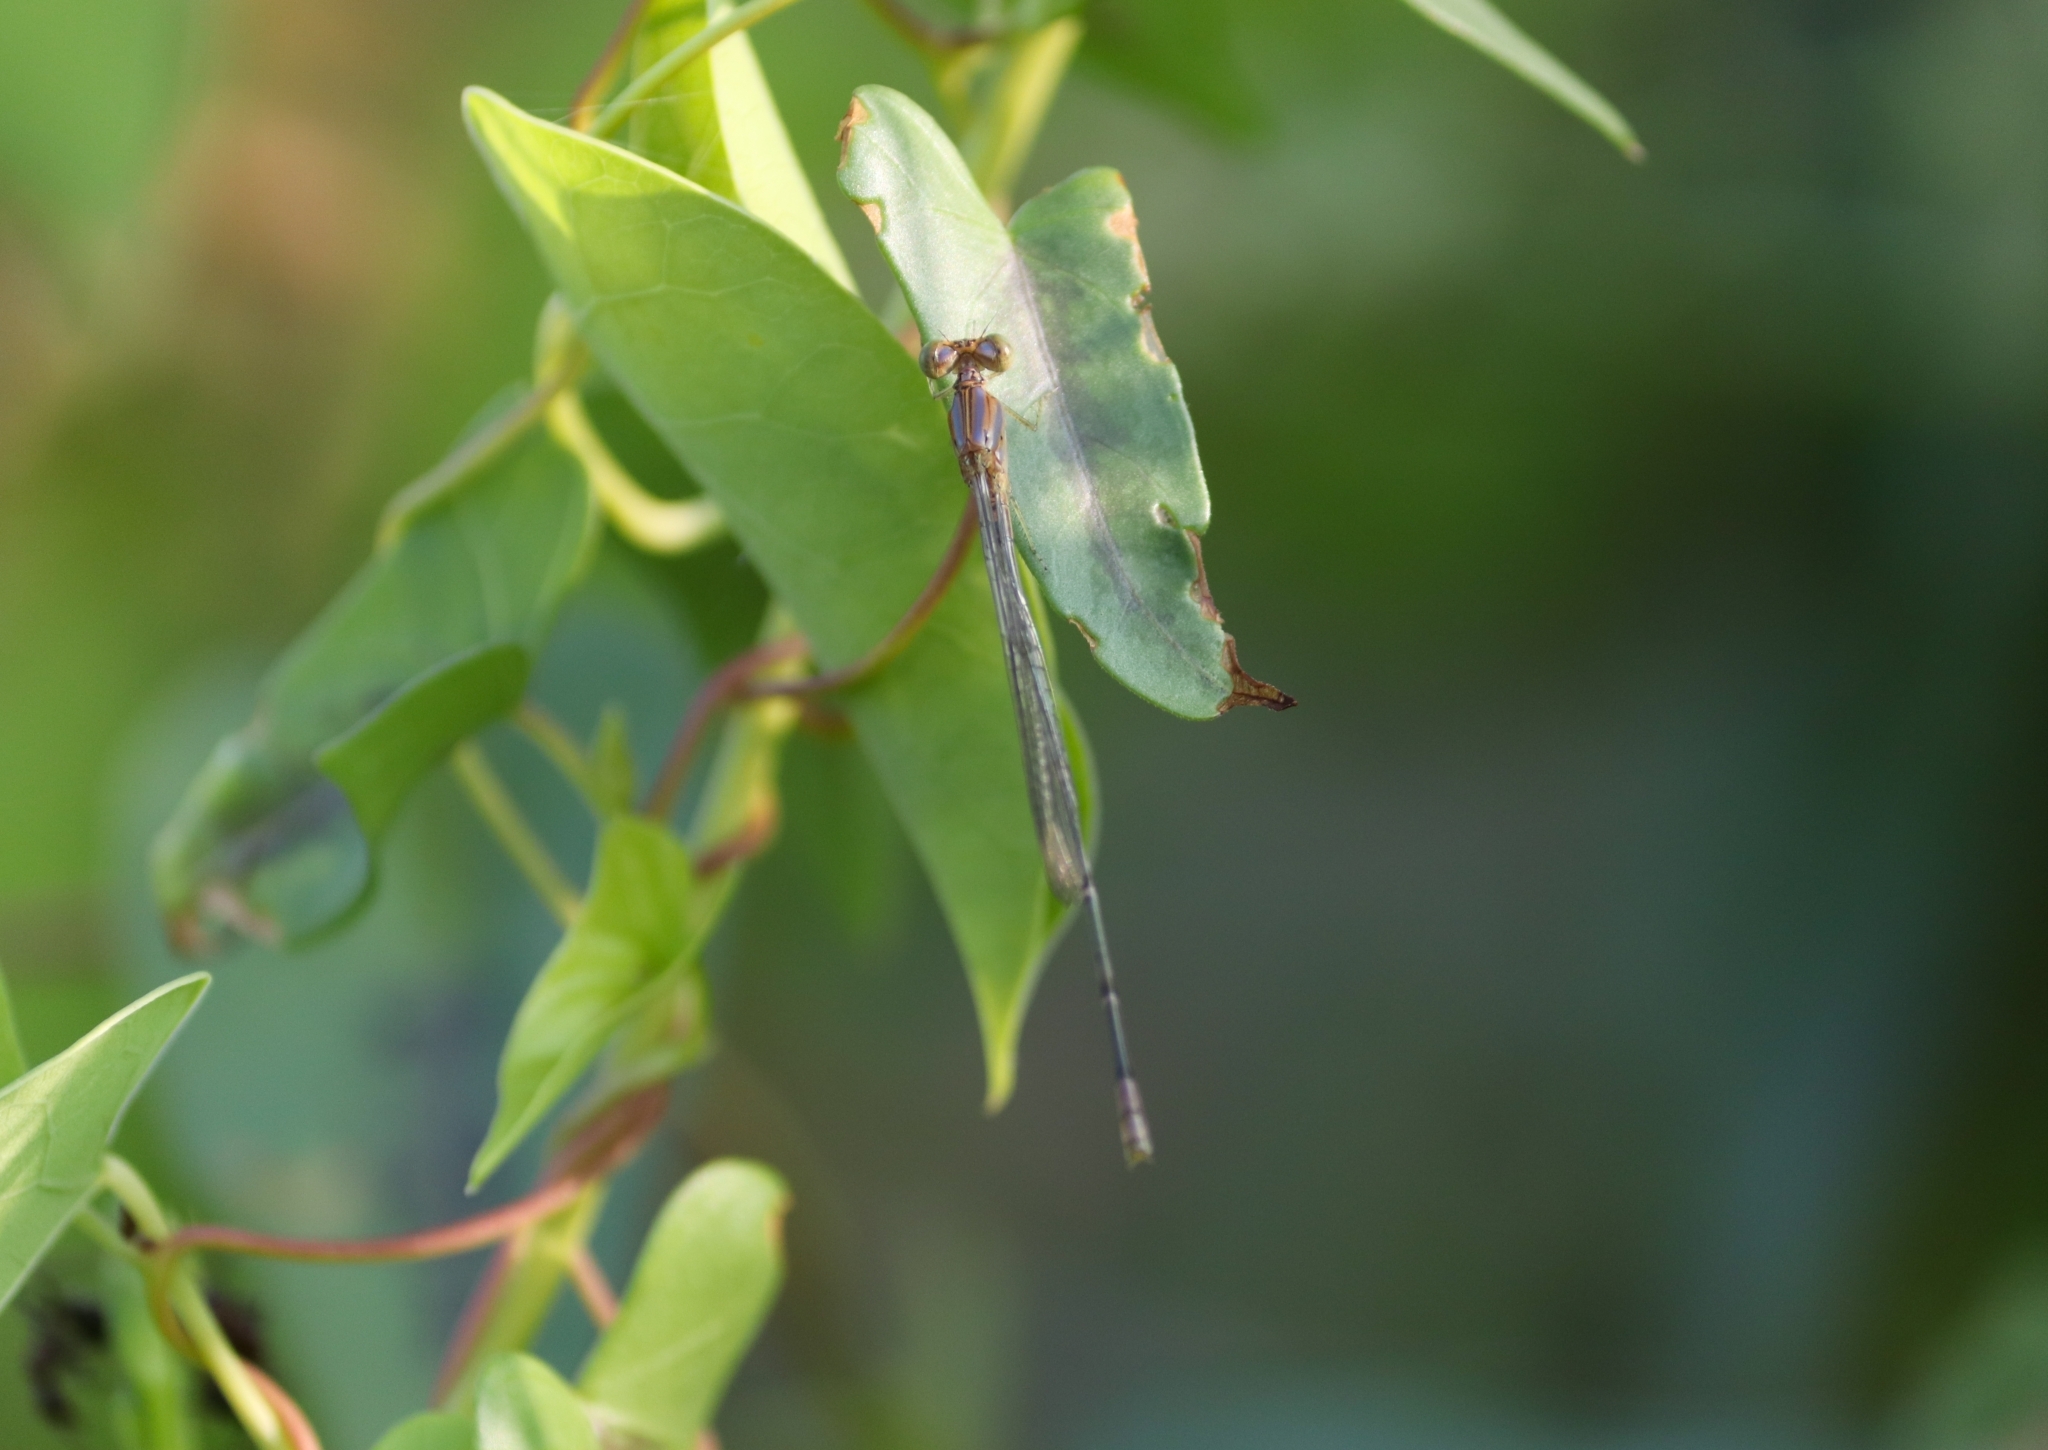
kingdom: Animalia
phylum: Arthropoda
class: Insecta
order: Odonata
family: Coenagrionidae
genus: Pseudagrion
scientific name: Pseudagrion microcephalum
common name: Blue riverdamsel
